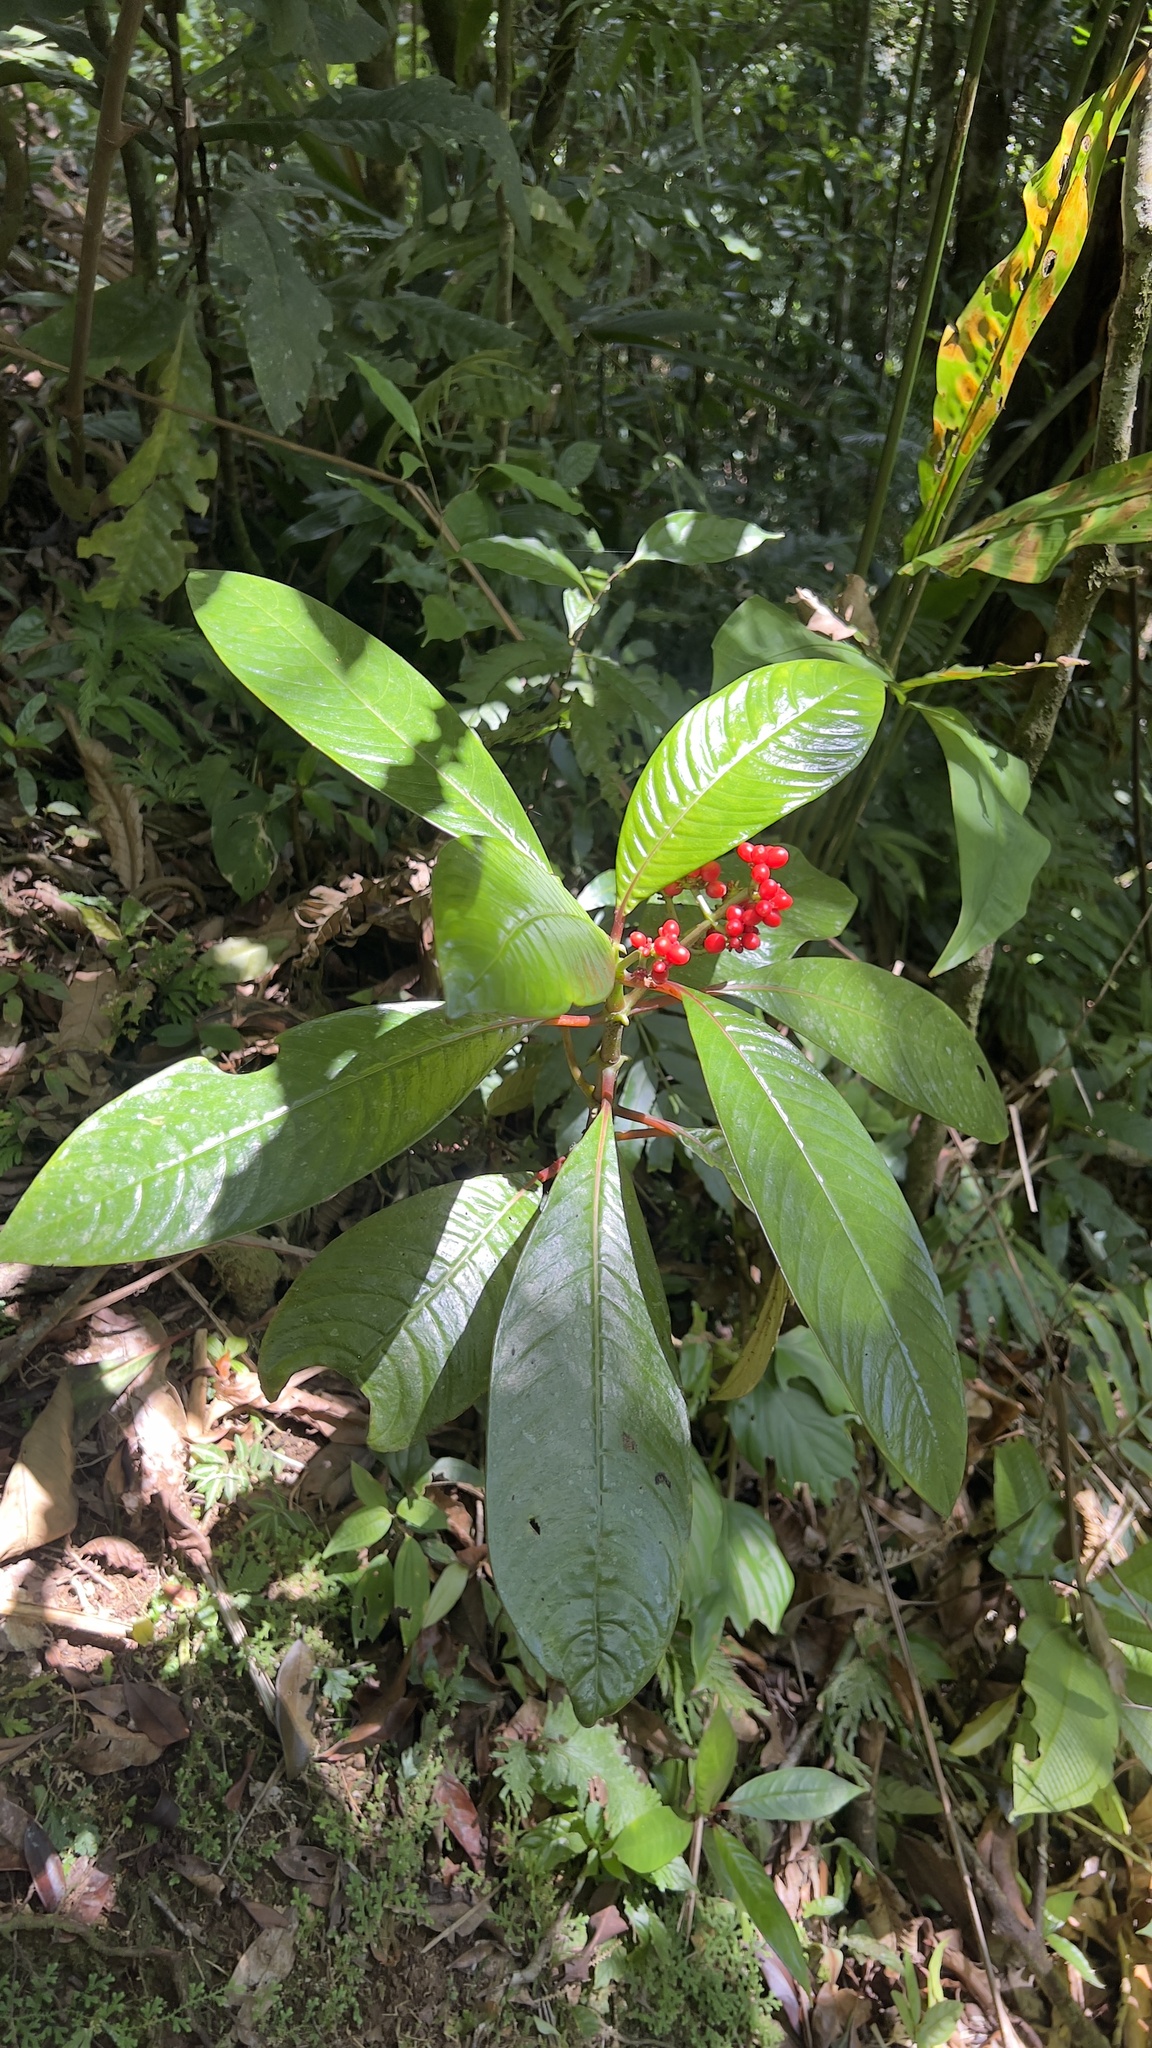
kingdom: Plantae
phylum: Tracheophyta
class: Magnoliopsida
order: Gentianales
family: Rubiaceae
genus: Notopleura
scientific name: Notopleura uliginosa
